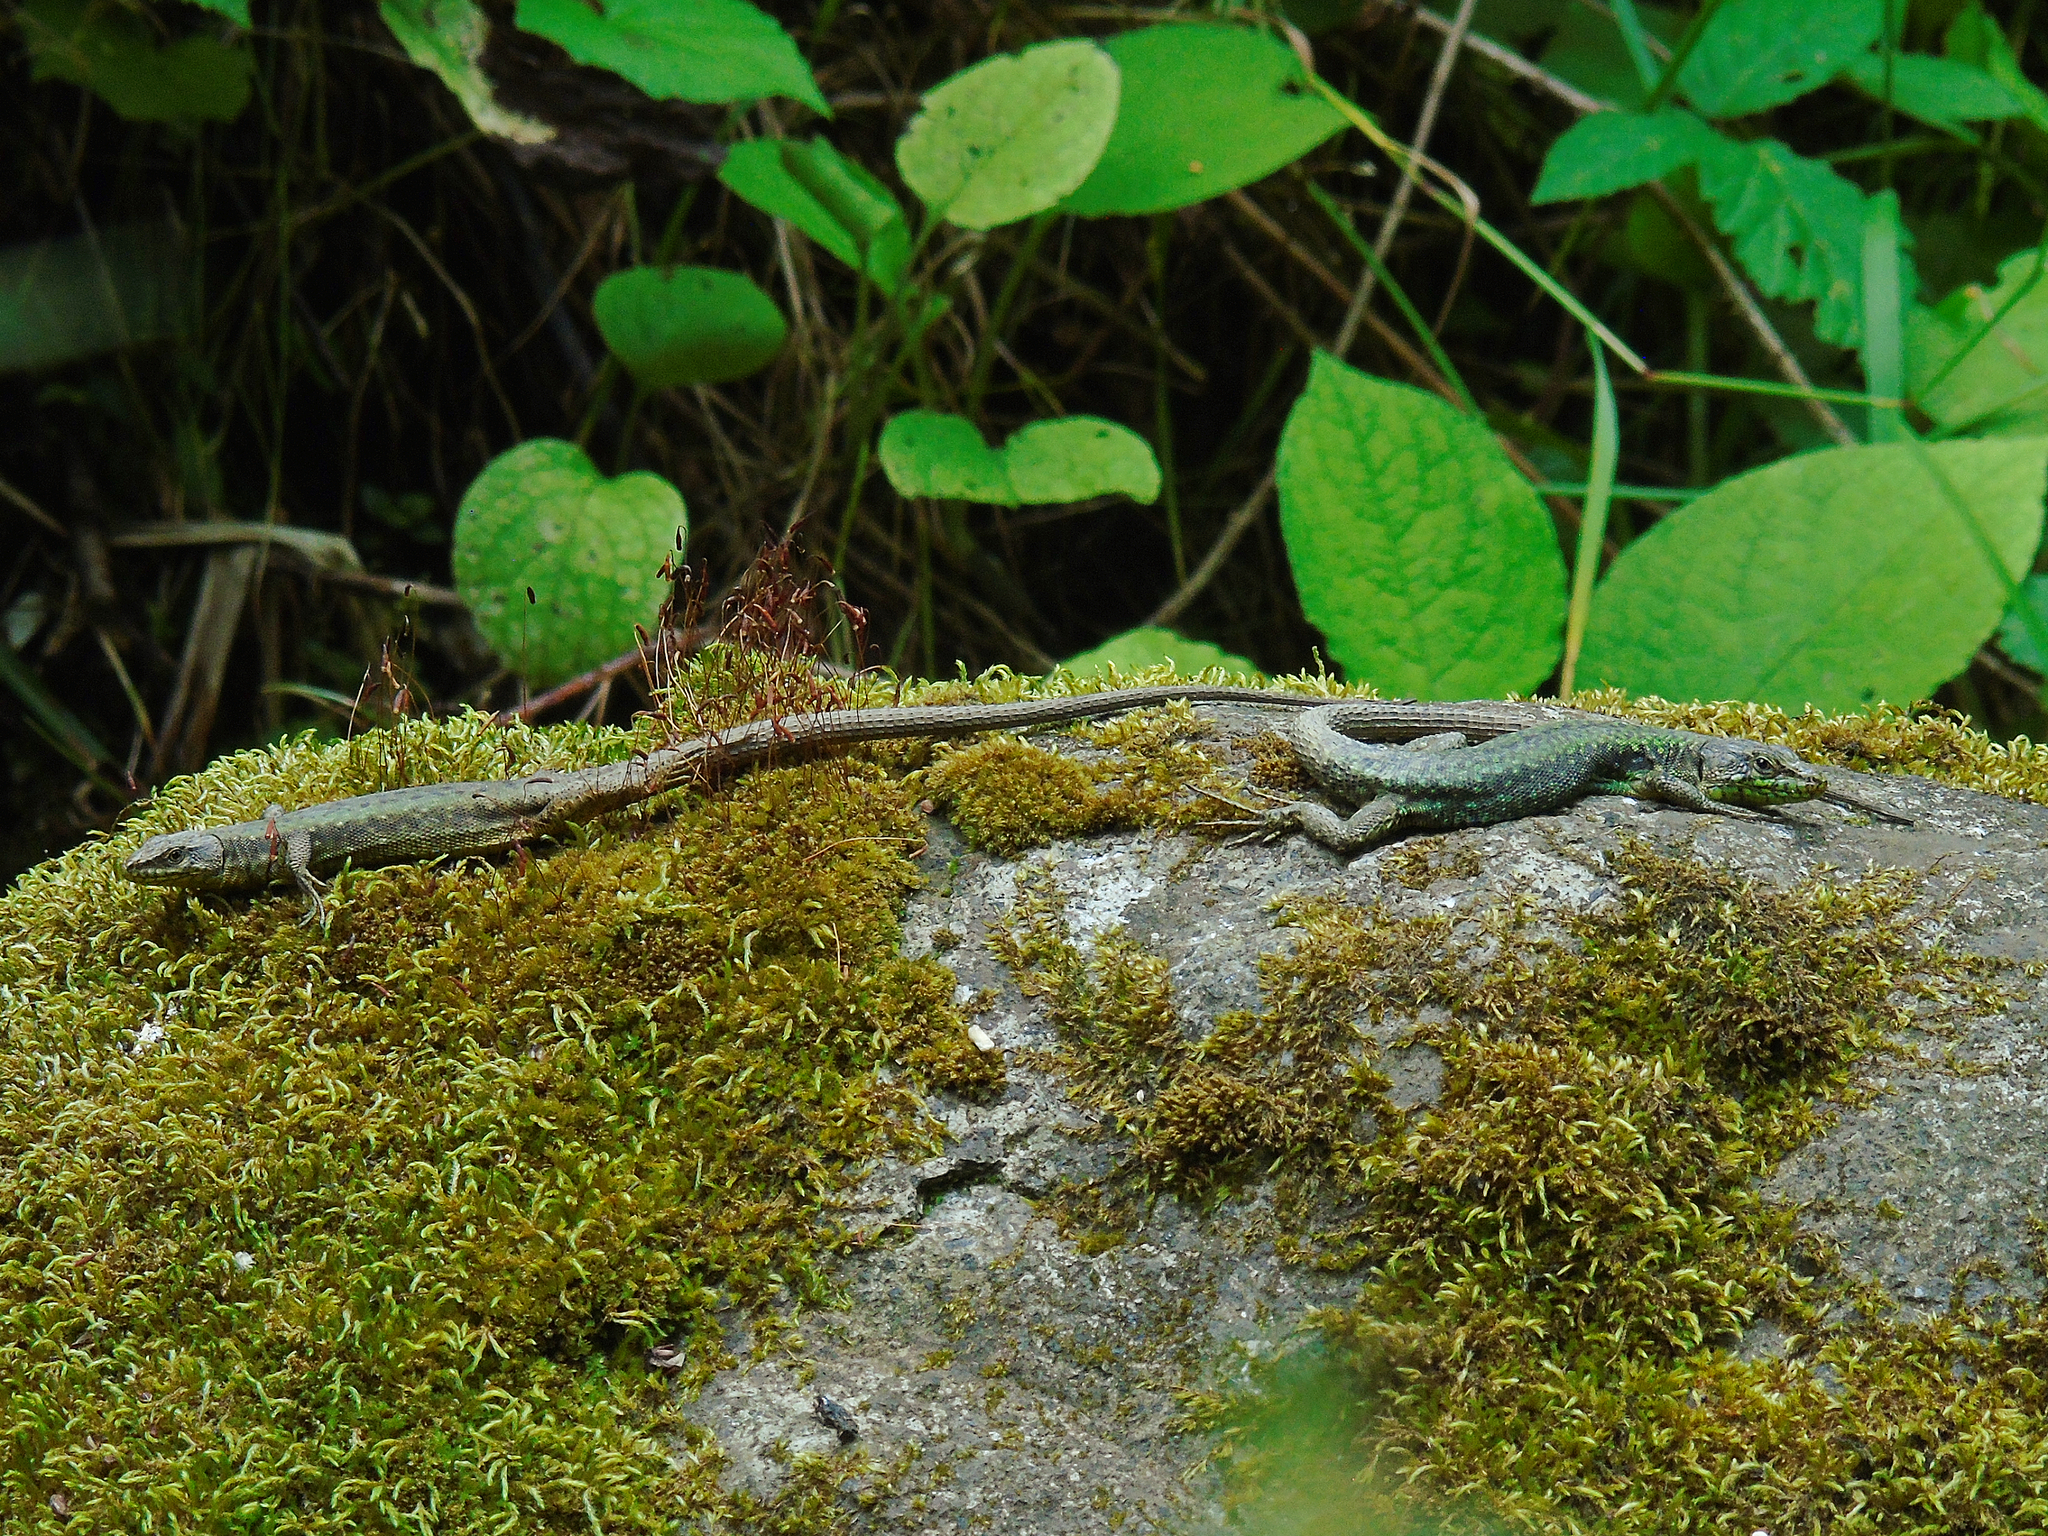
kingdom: Animalia
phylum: Chordata
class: Squamata
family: Lacertidae
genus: Darevskia
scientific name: Darevskia rudis
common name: Spiny-tailed lizard
